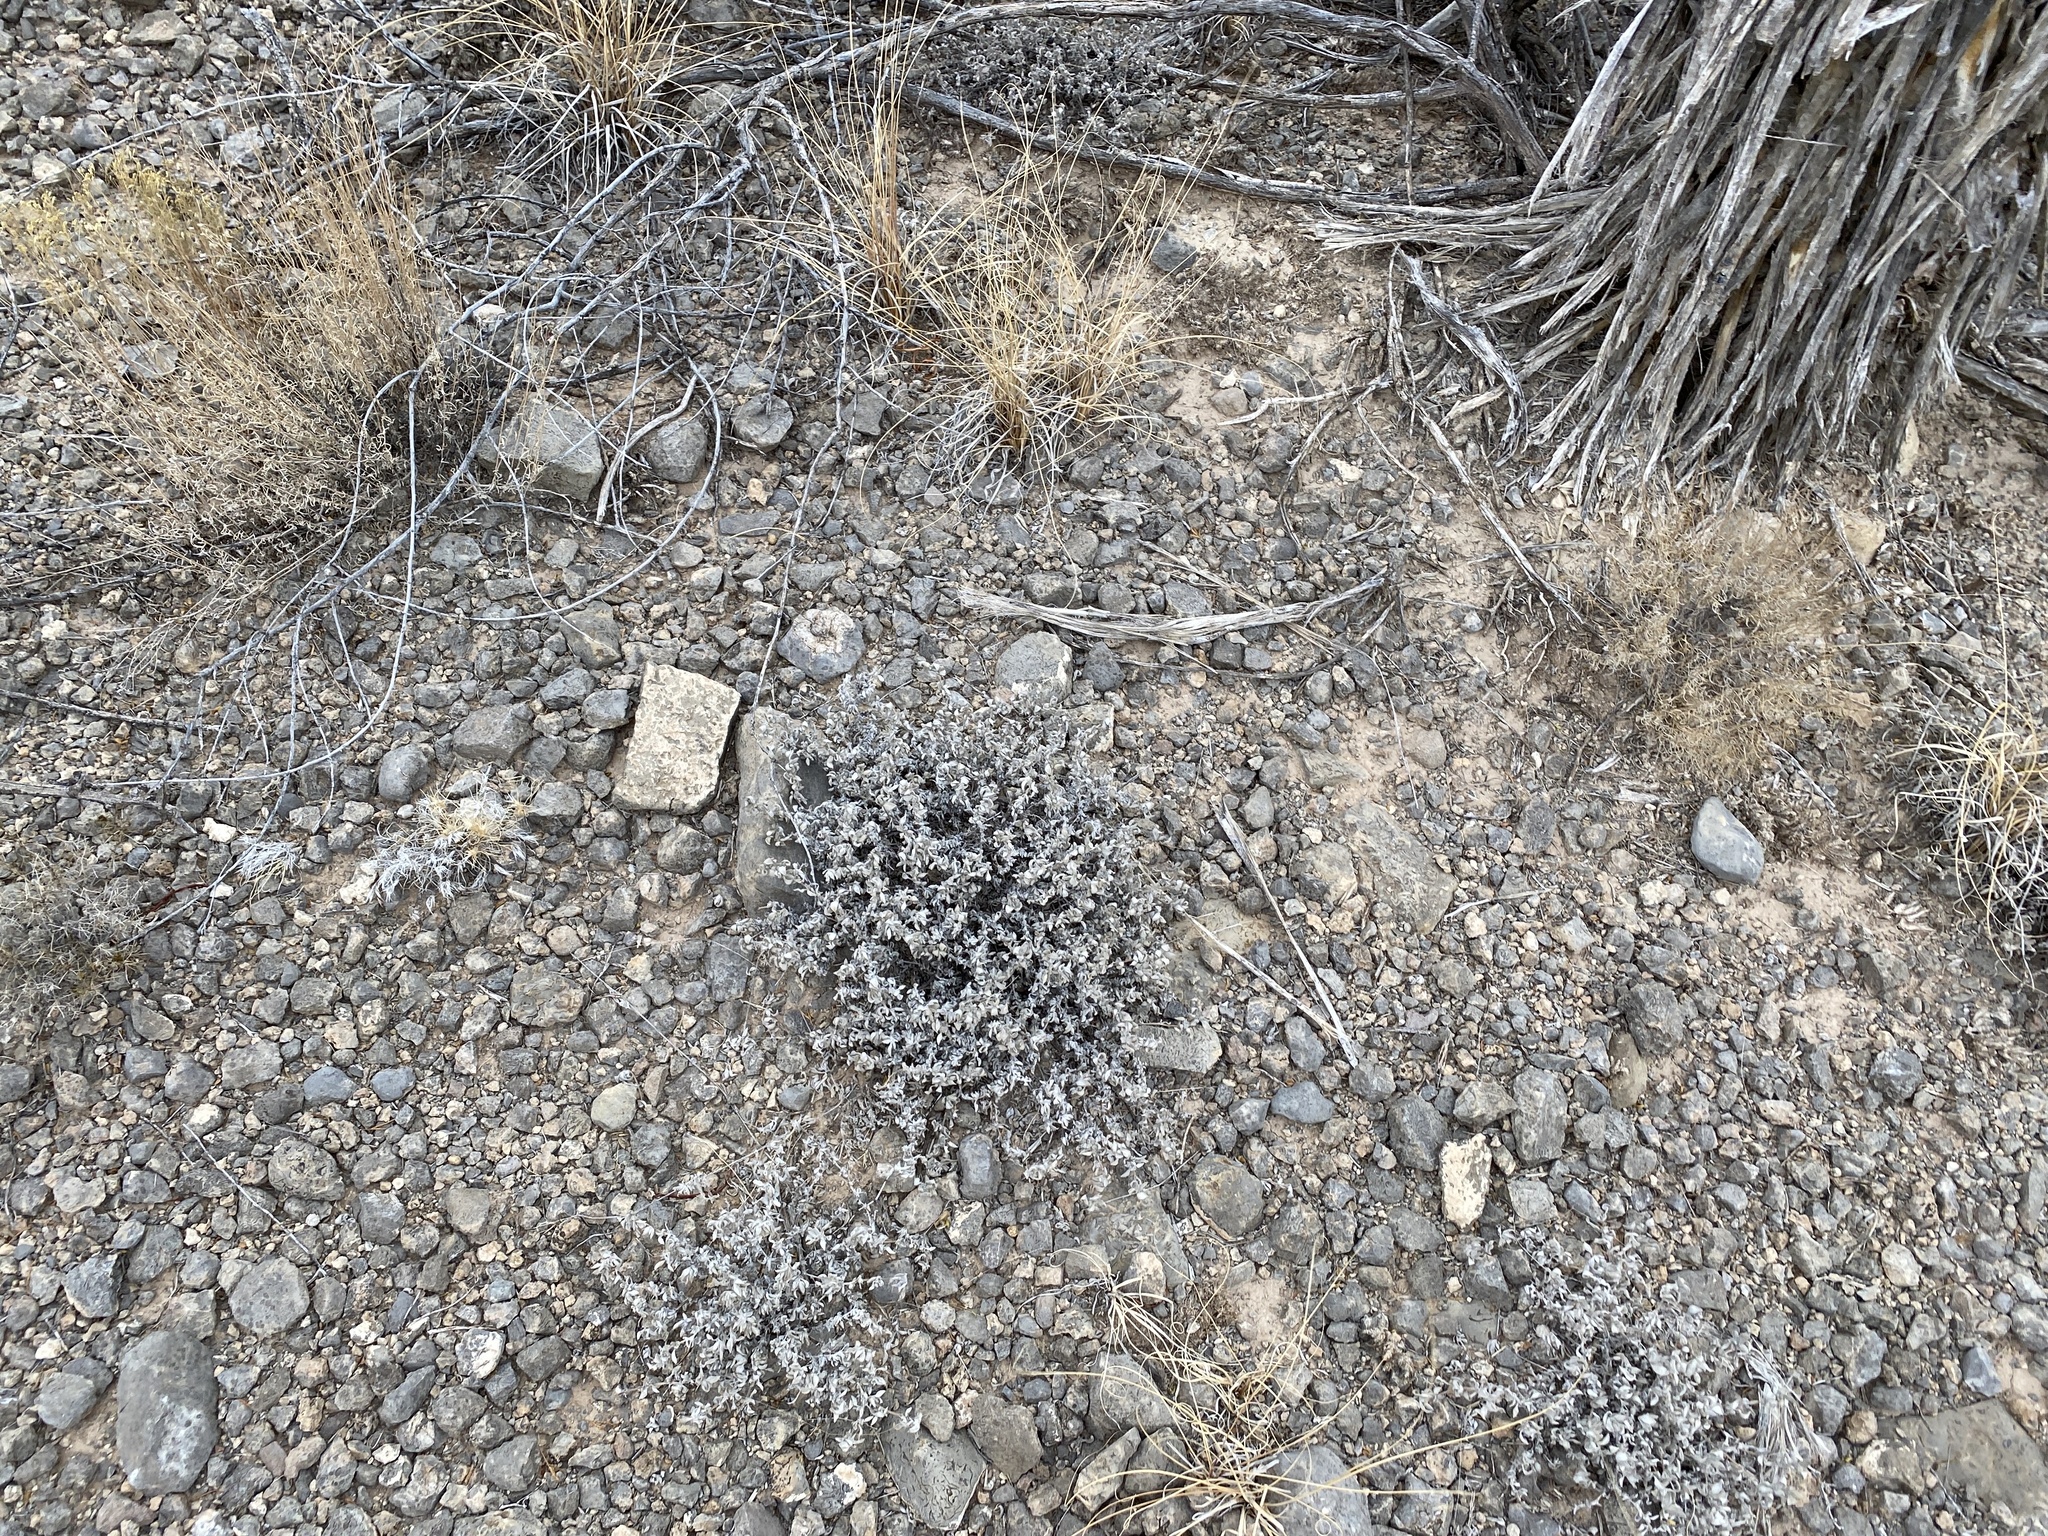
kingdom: Plantae
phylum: Tracheophyta
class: Magnoliopsida
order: Boraginales
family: Ehretiaceae
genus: Tiquilia
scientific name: Tiquilia canescens
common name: Hairy tiquilia
